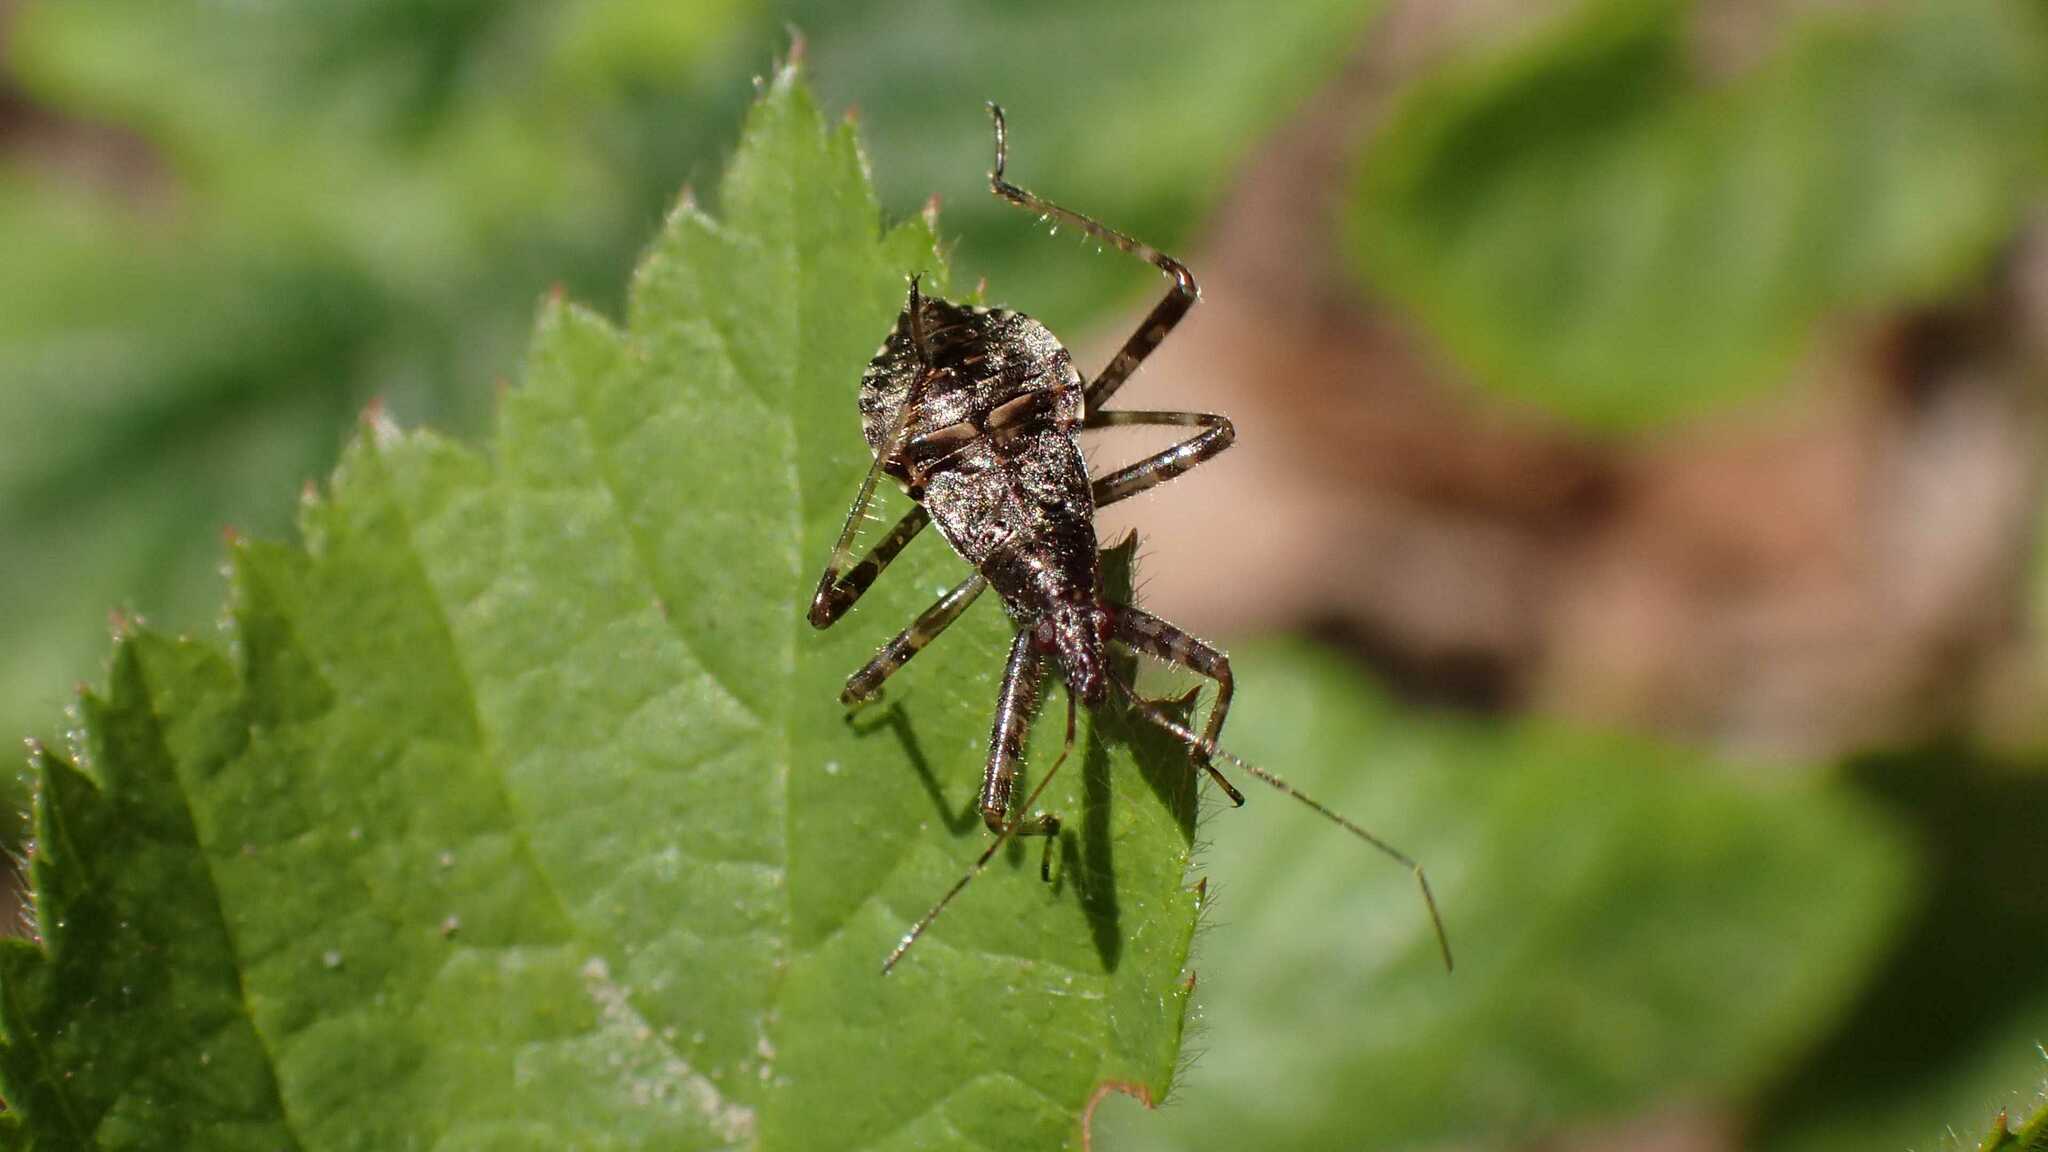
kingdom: Animalia
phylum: Arthropoda
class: Insecta
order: Hemiptera
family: Nabidae
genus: Himacerus
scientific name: Himacerus apterus
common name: Tree damsel bug
